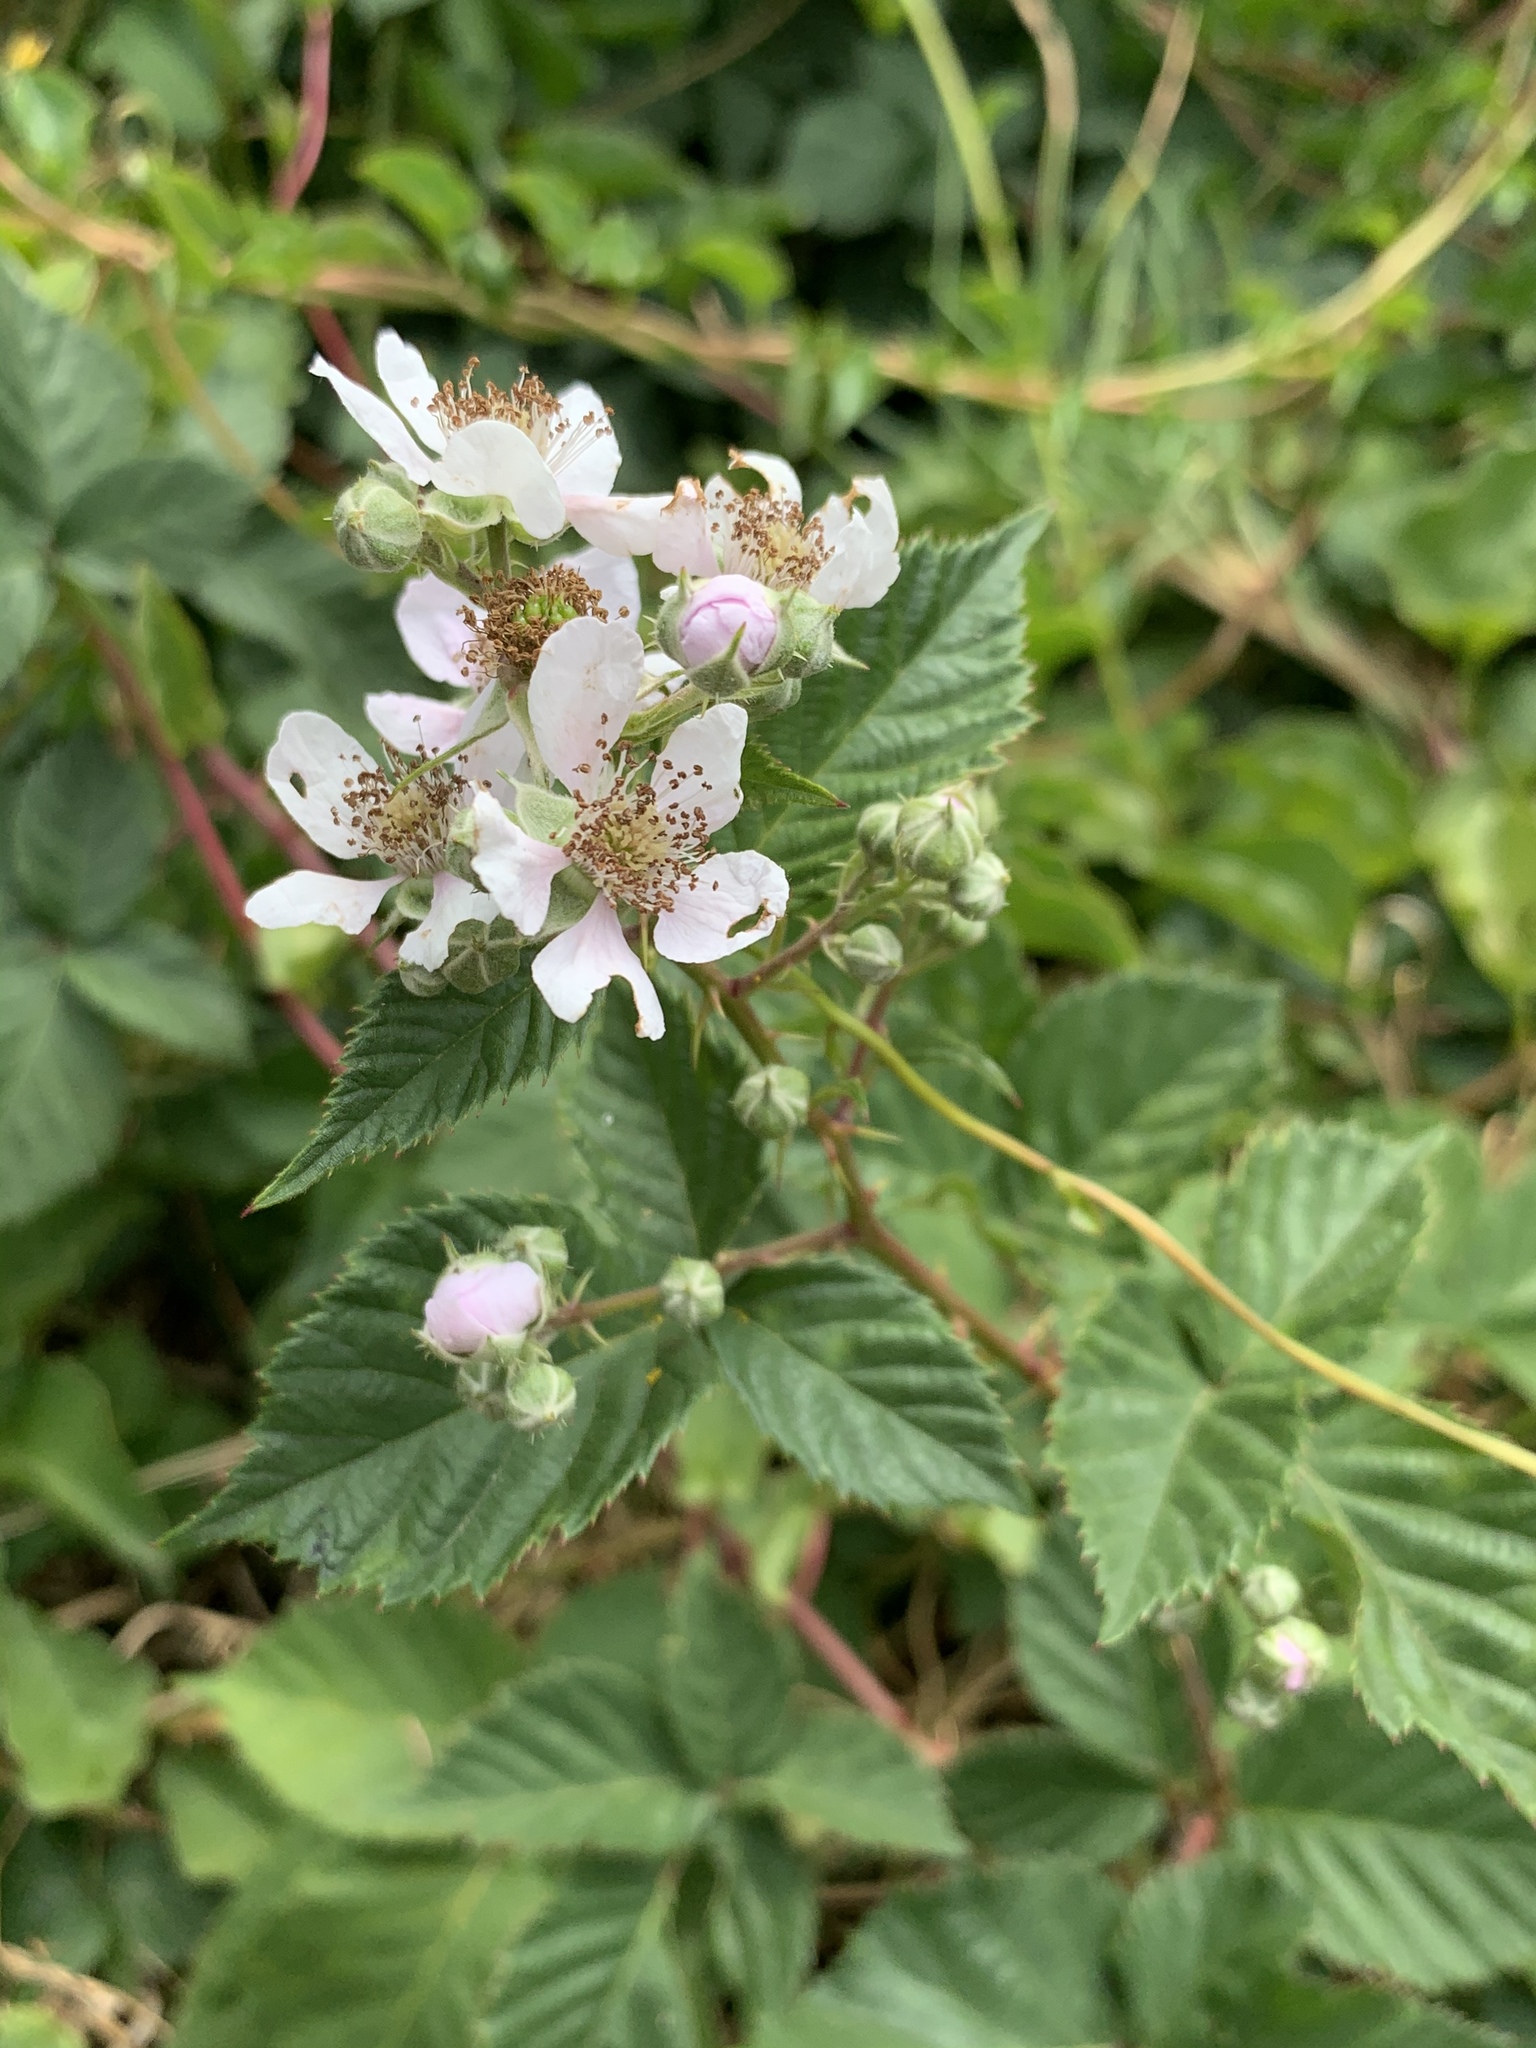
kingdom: Plantae
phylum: Tracheophyta
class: Magnoliopsida
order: Rosales
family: Rosaceae
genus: Rubus
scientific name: Rubus affinis
